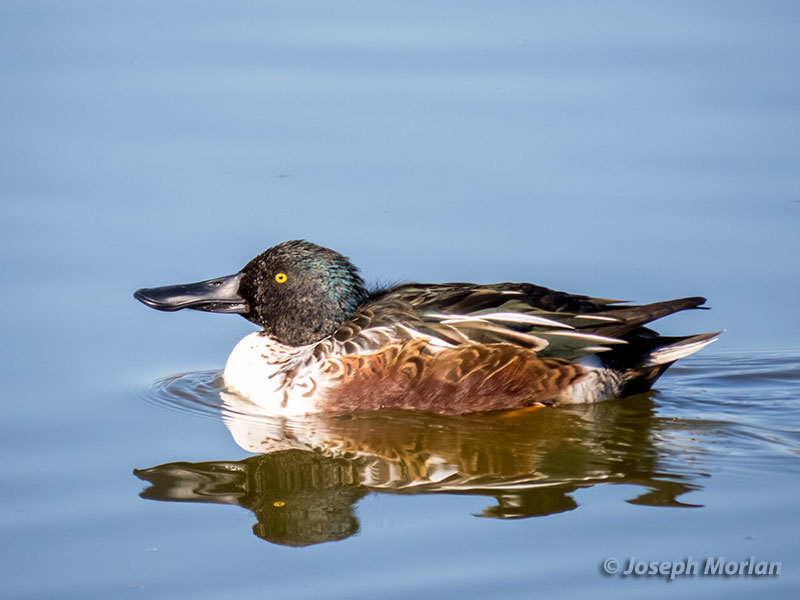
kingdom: Animalia
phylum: Chordata
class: Aves
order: Anseriformes
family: Anatidae
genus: Spatula
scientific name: Spatula clypeata
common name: Northern shoveler
